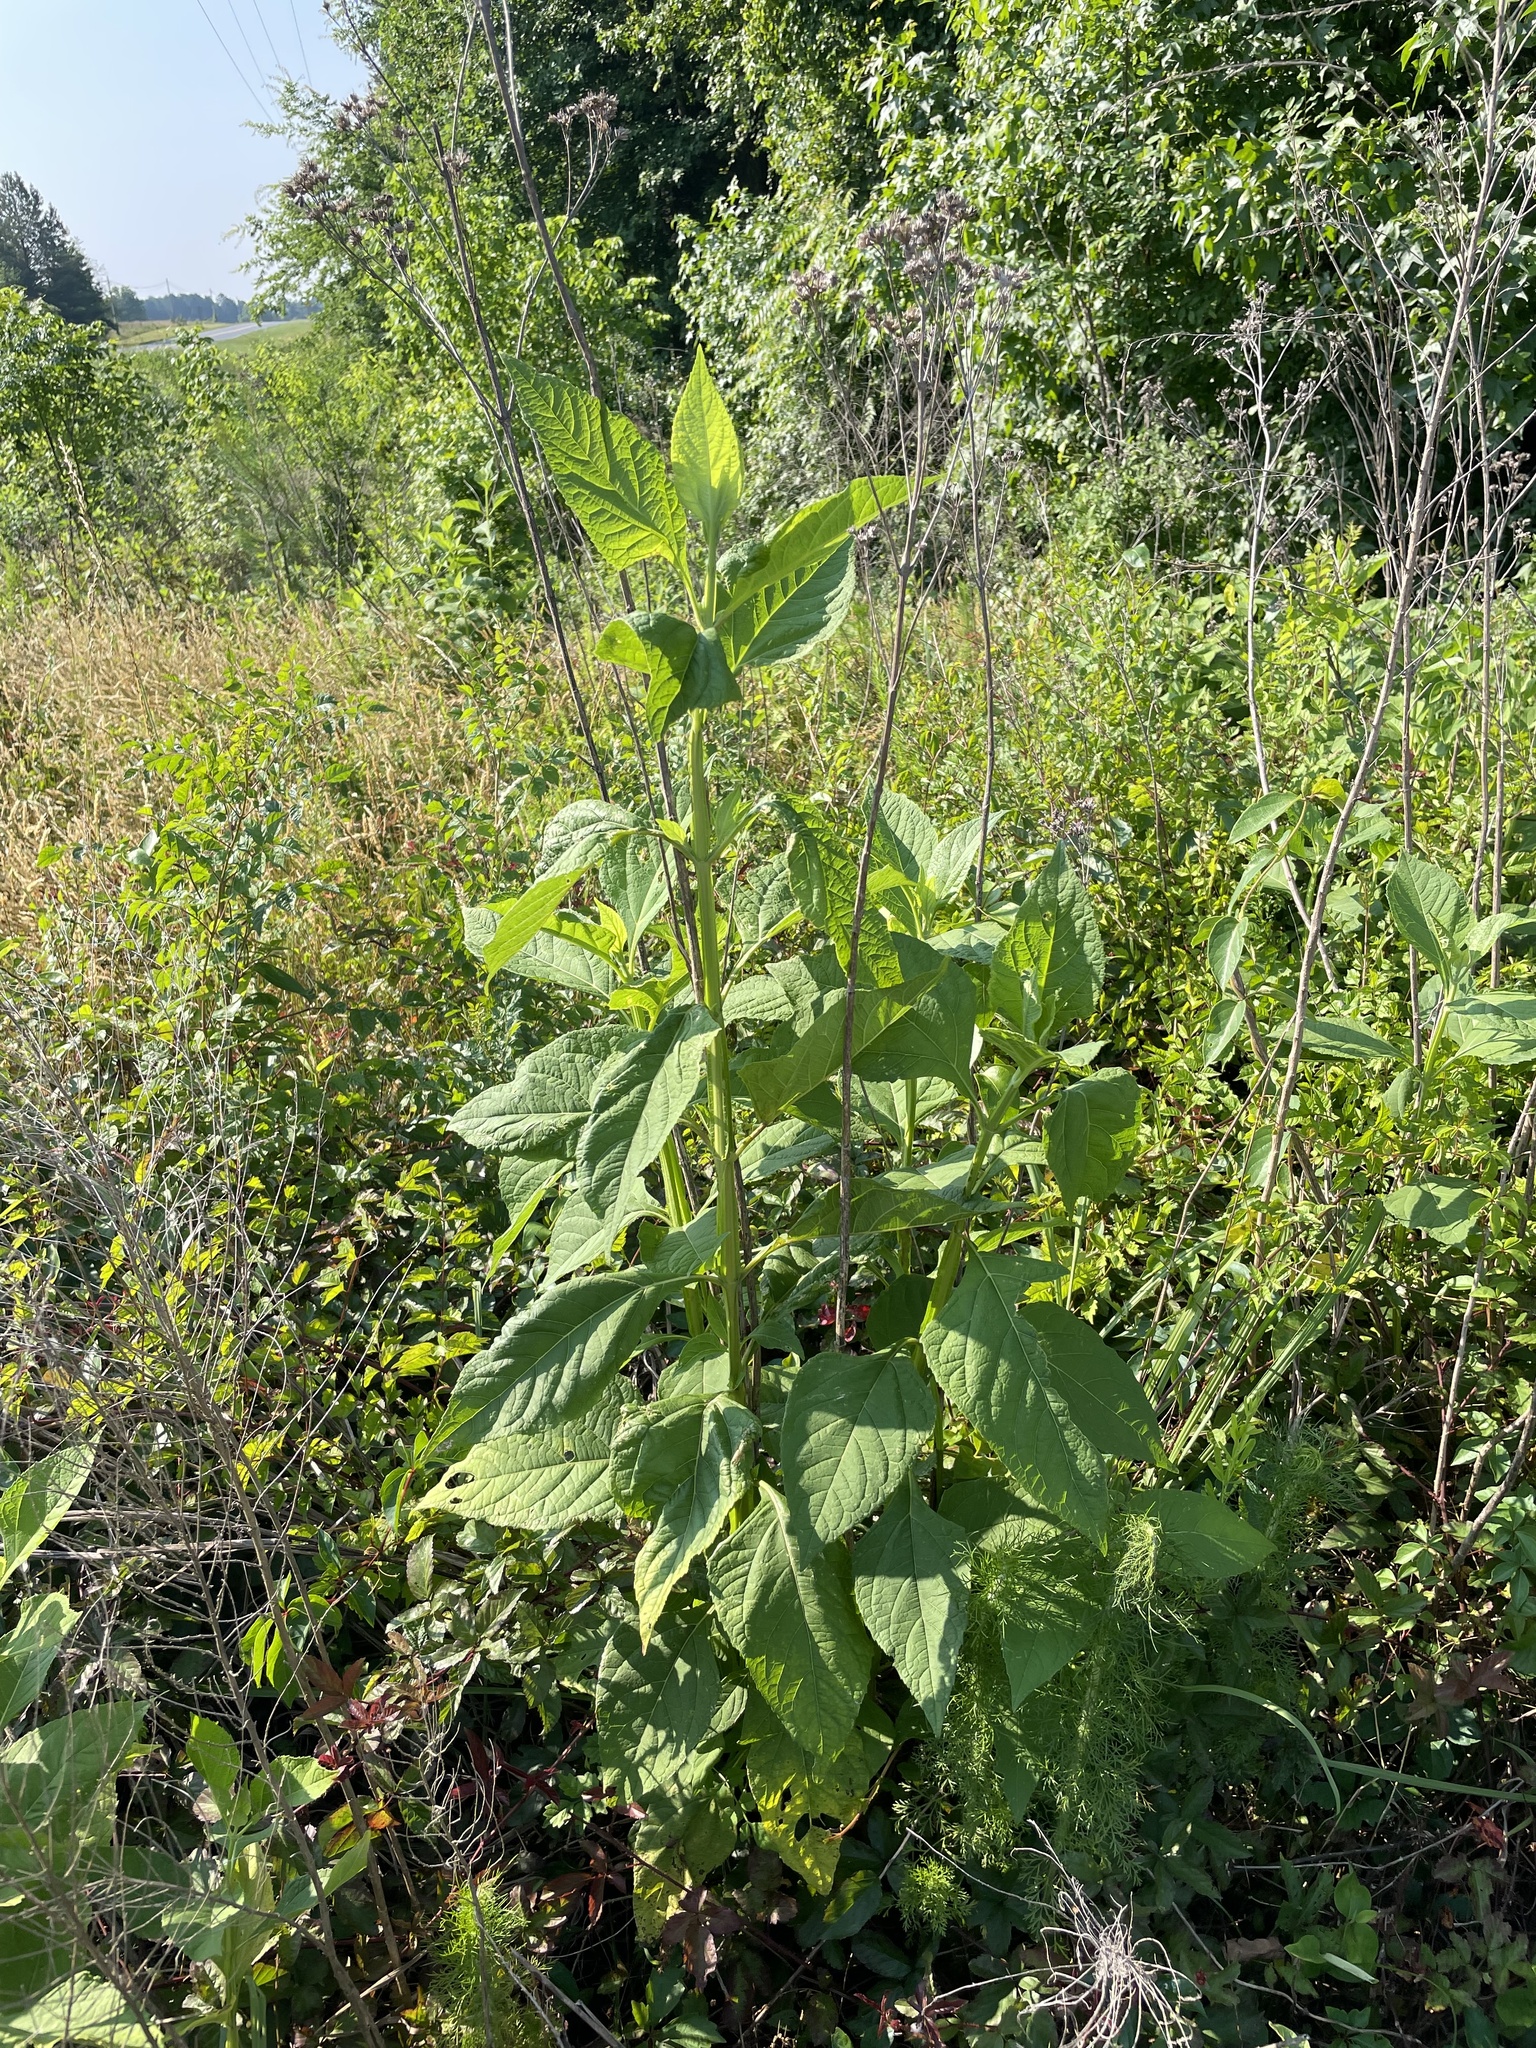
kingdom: Plantae
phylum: Tracheophyta
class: Magnoliopsida
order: Asterales
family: Asteraceae
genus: Verbesina
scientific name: Verbesina occidentalis
